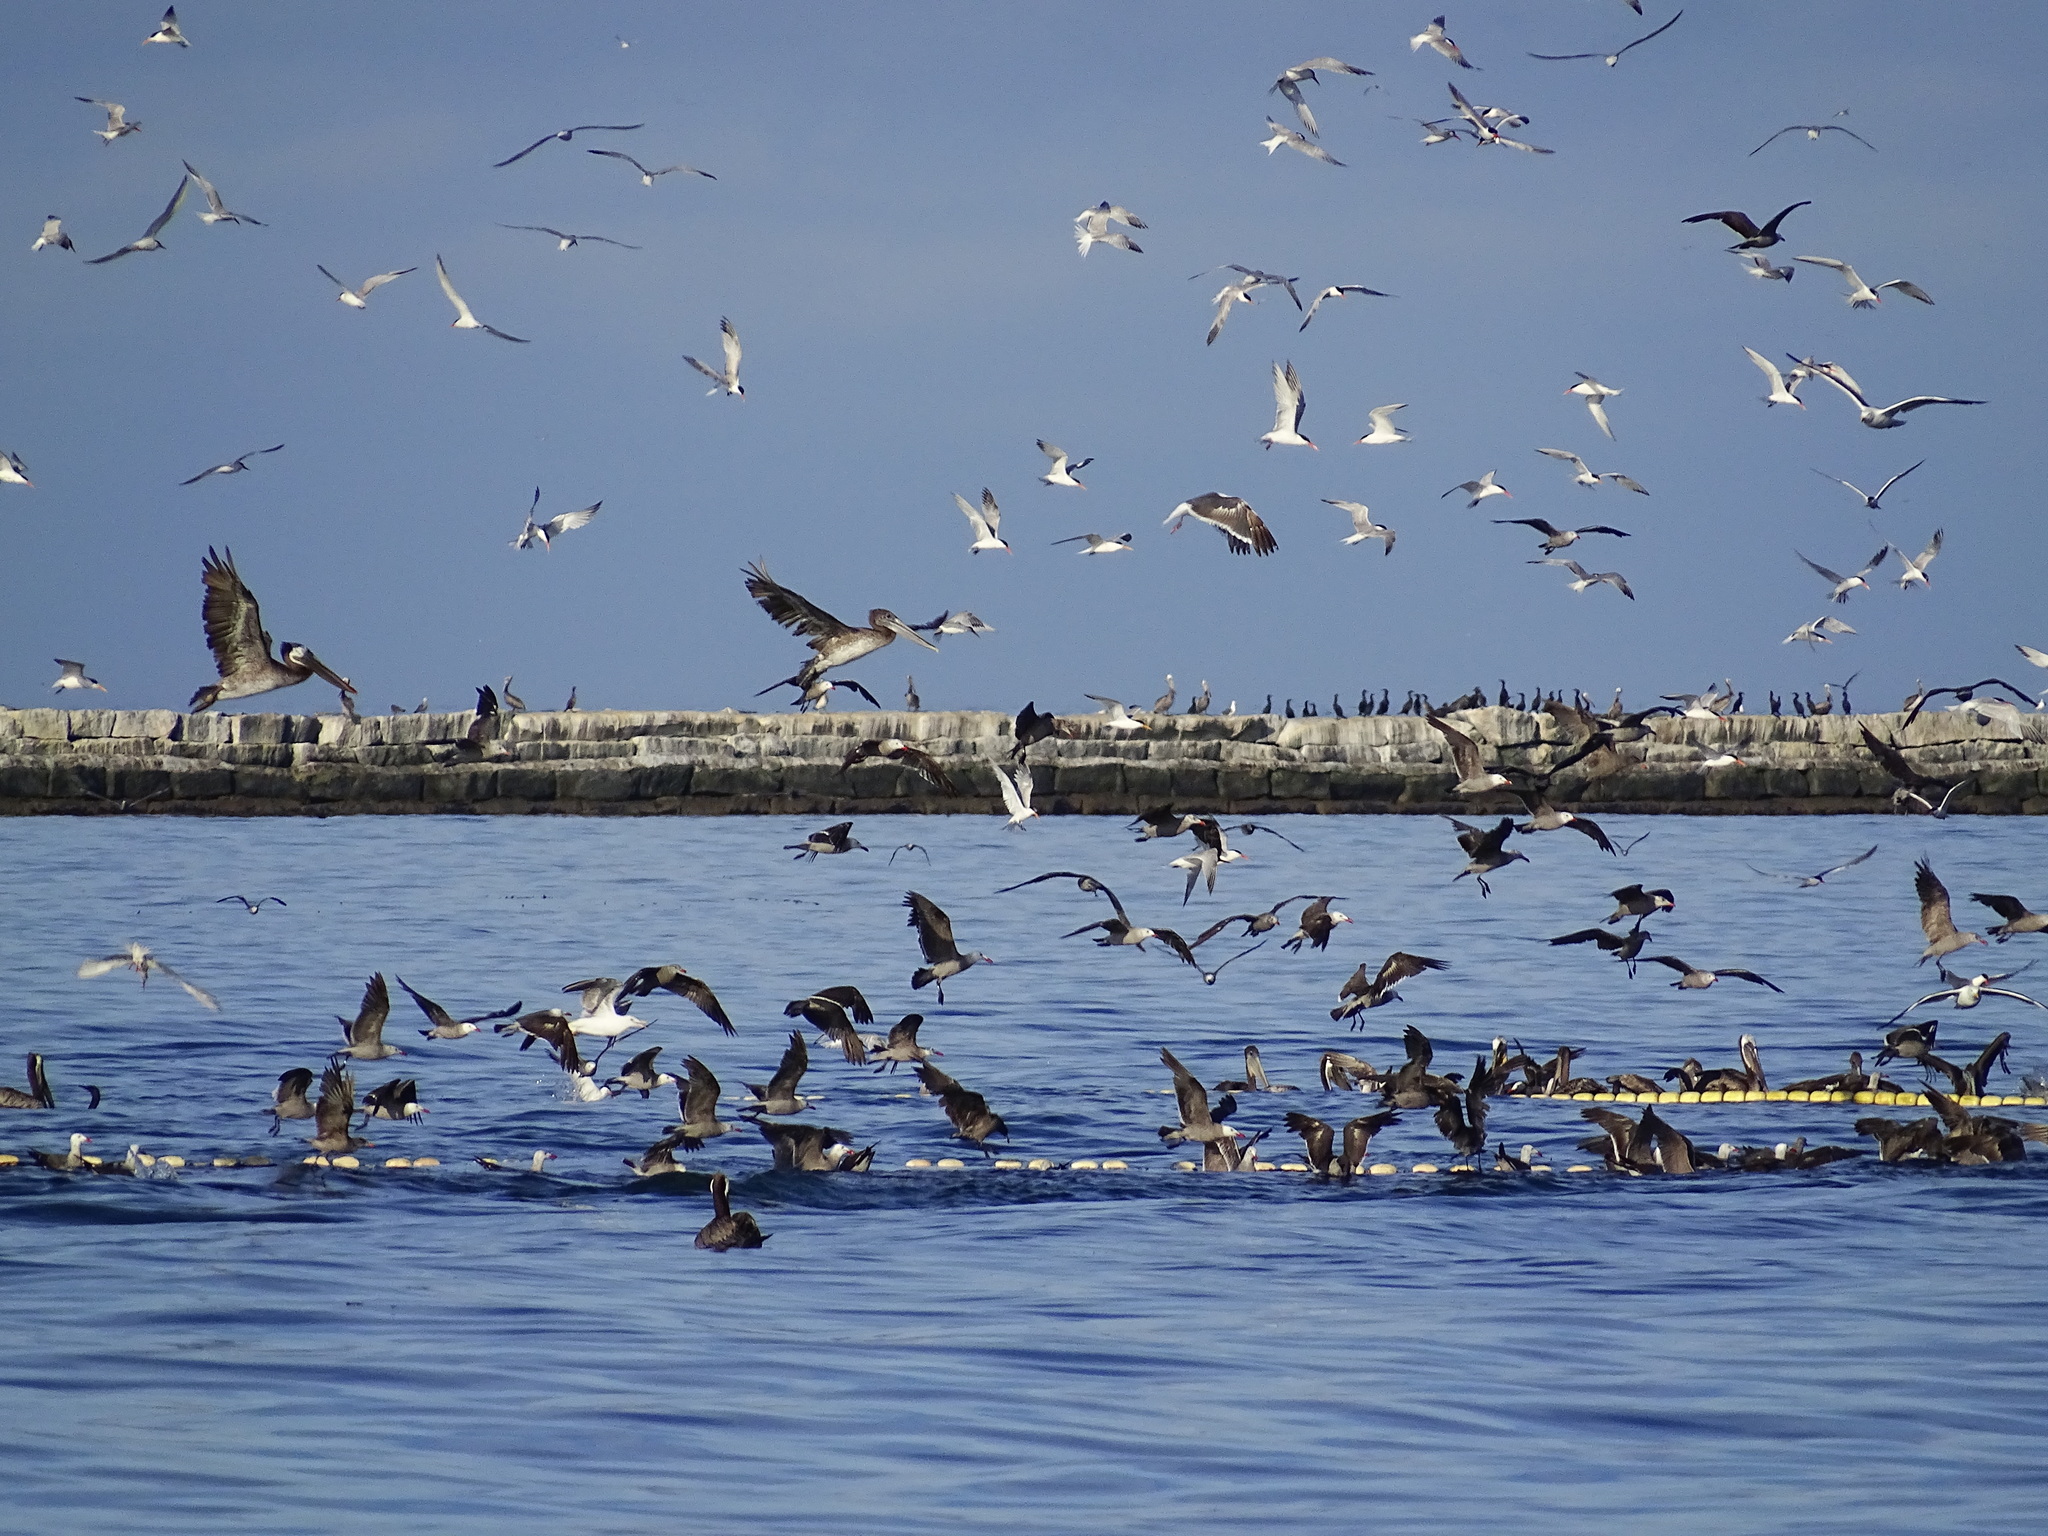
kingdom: Animalia
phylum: Chordata
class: Aves
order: Pelecaniformes
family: Pelecanidae
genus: Pelecanus
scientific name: Pelecanus occidentalis
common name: Brown pelican
